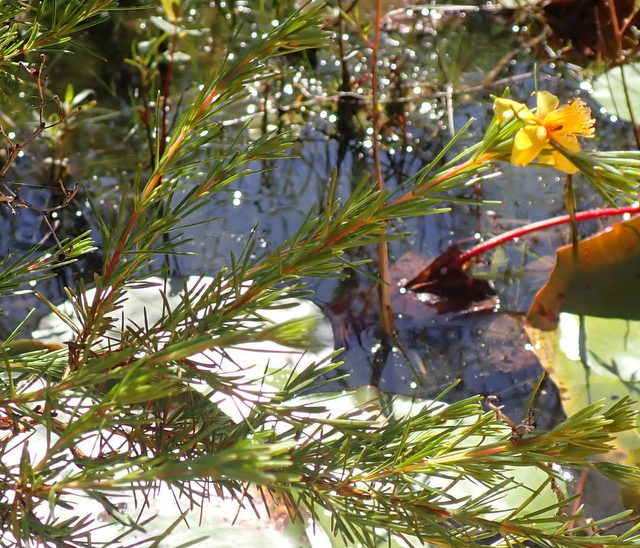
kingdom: Plantae
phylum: Tracheophyta
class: Magnoliopsida
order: Malpighiales
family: Hypericaceae
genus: Hypericum
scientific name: Hypericum fasciculatum
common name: Peelbark st. john's wort
